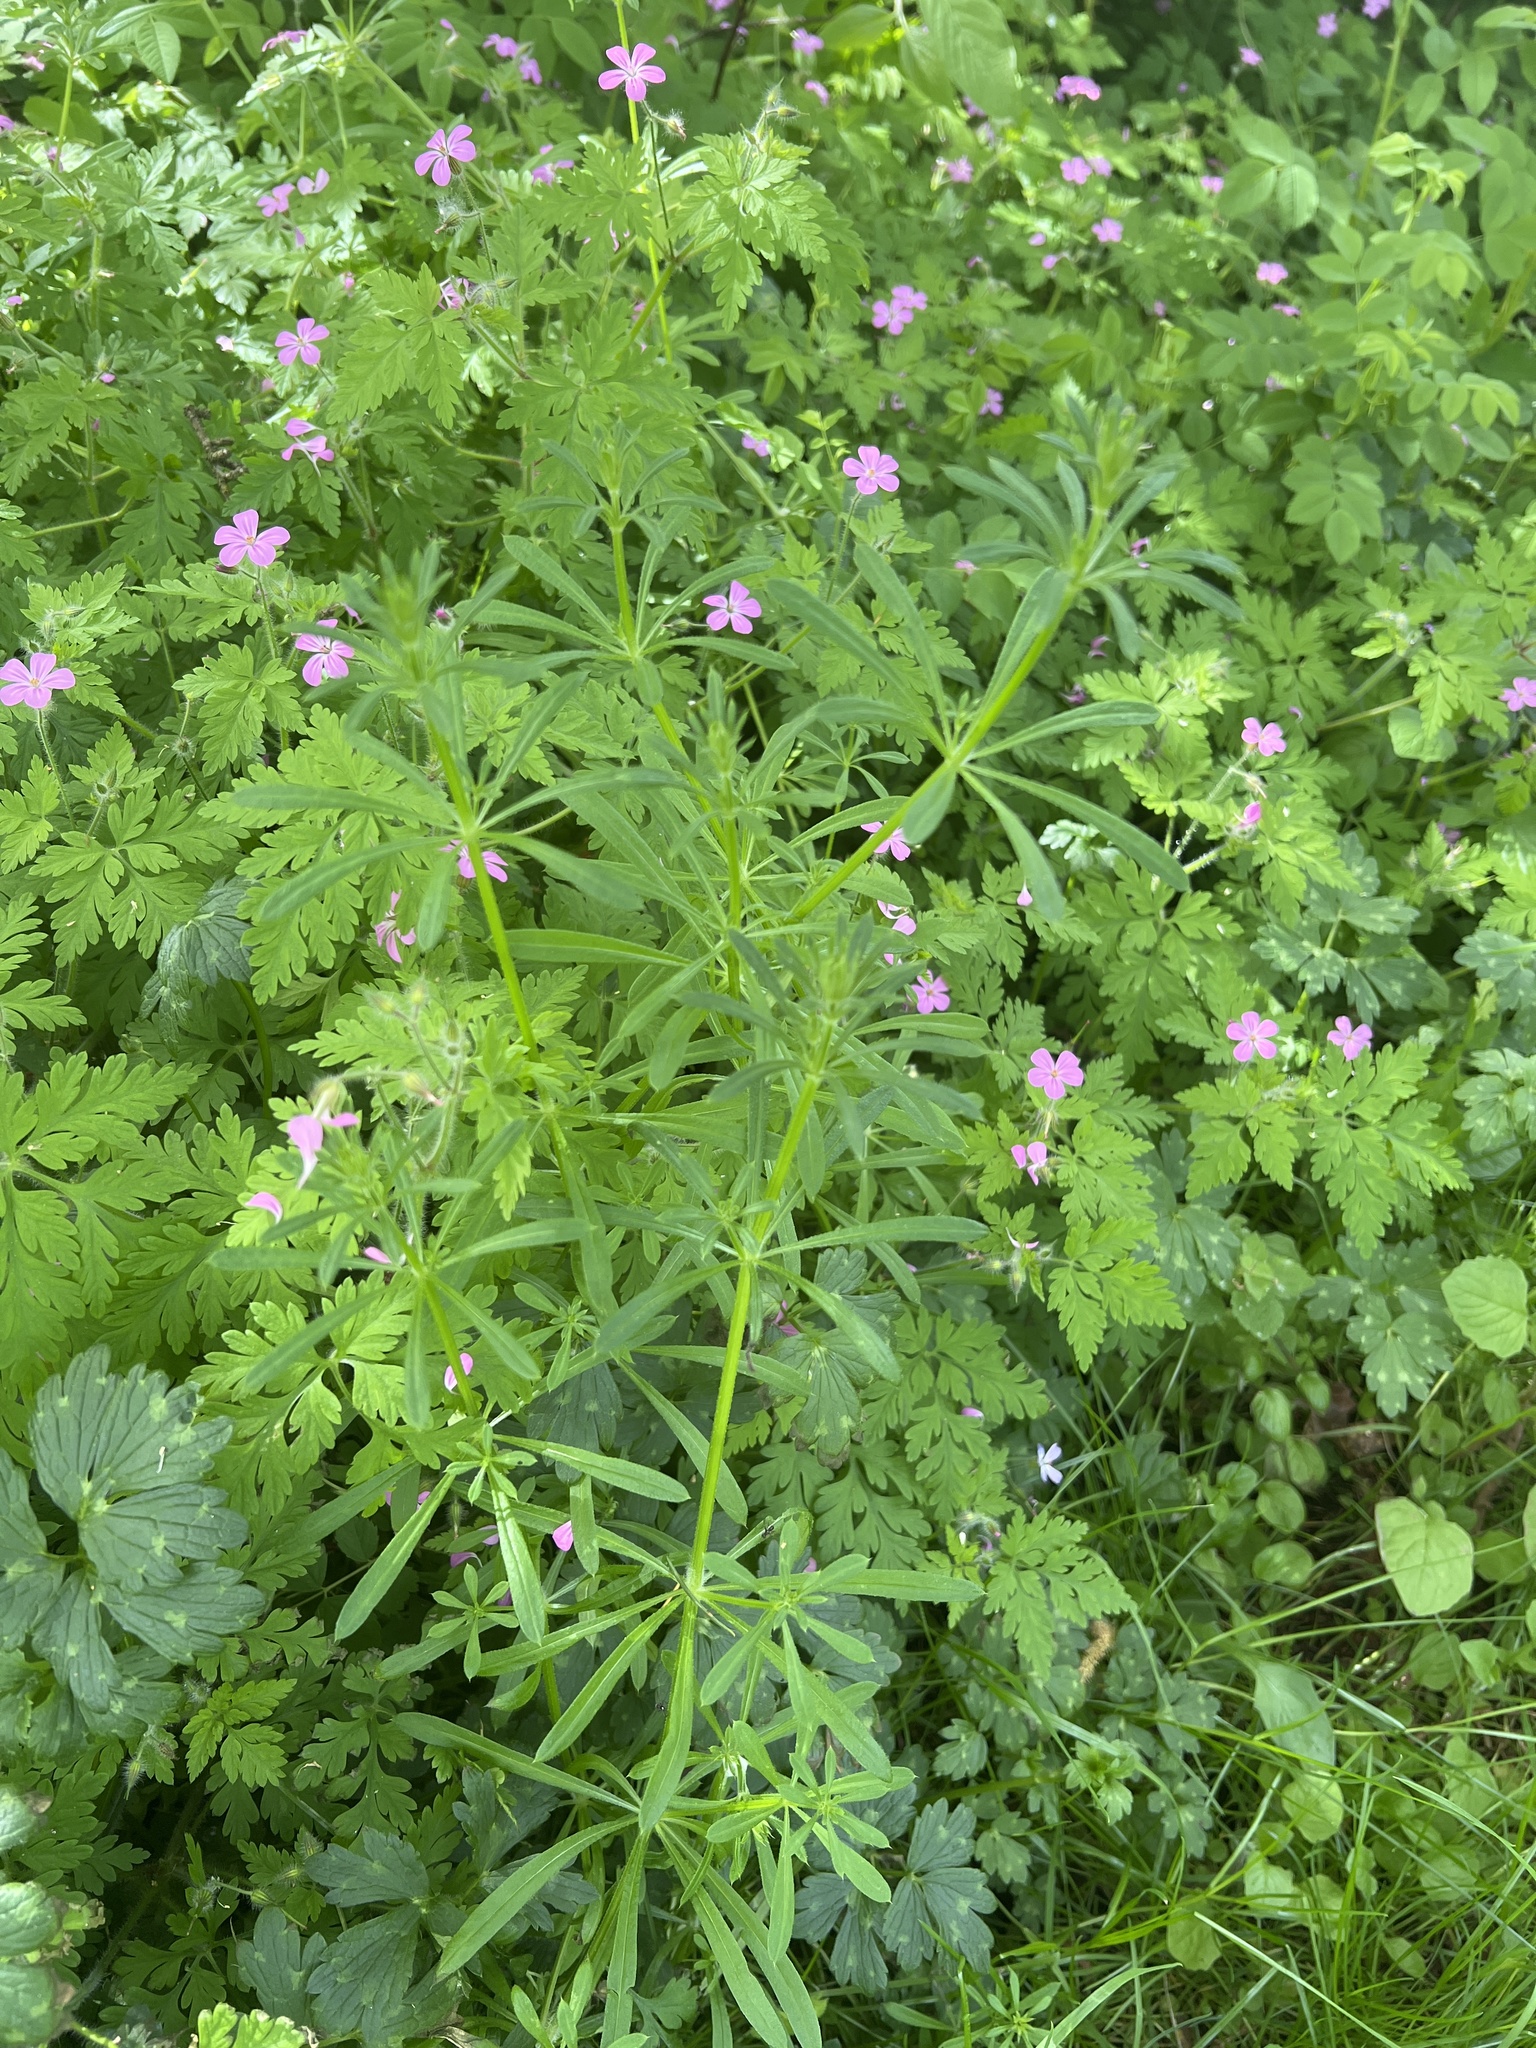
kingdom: Plantae
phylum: Tracheophyta
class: Magnoliopsida
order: Gentianales
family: Rubiaceae
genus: Galium
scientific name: Galium aparine
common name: Cleavers
